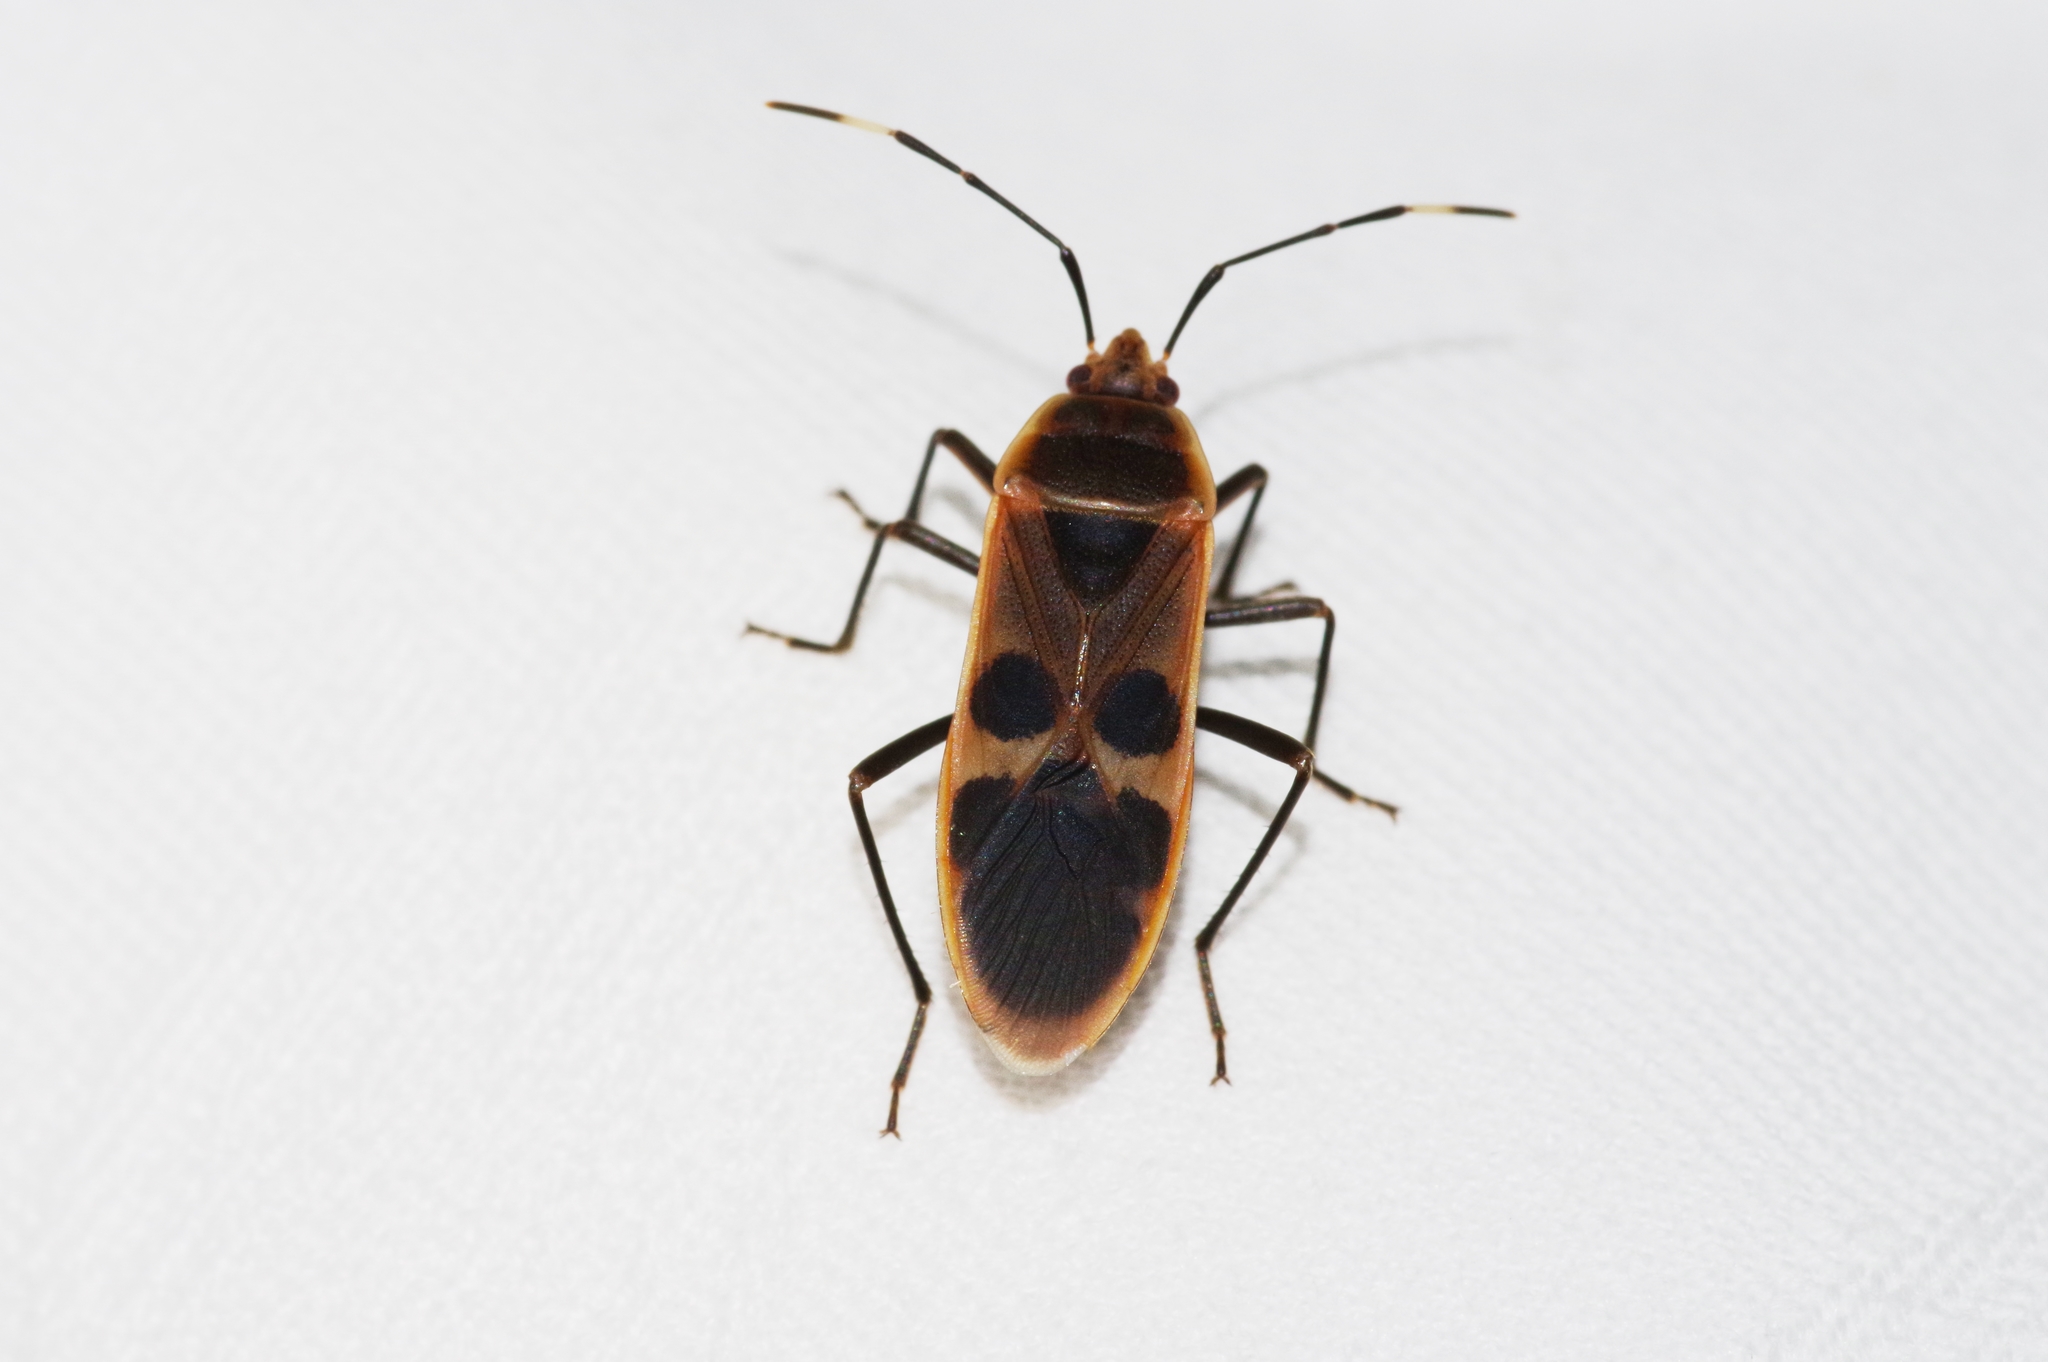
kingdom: Animalia
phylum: Arthropoda
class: Insecta
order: Hemiptera
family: Largidae
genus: Physopelta
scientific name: Physopelta gutta
